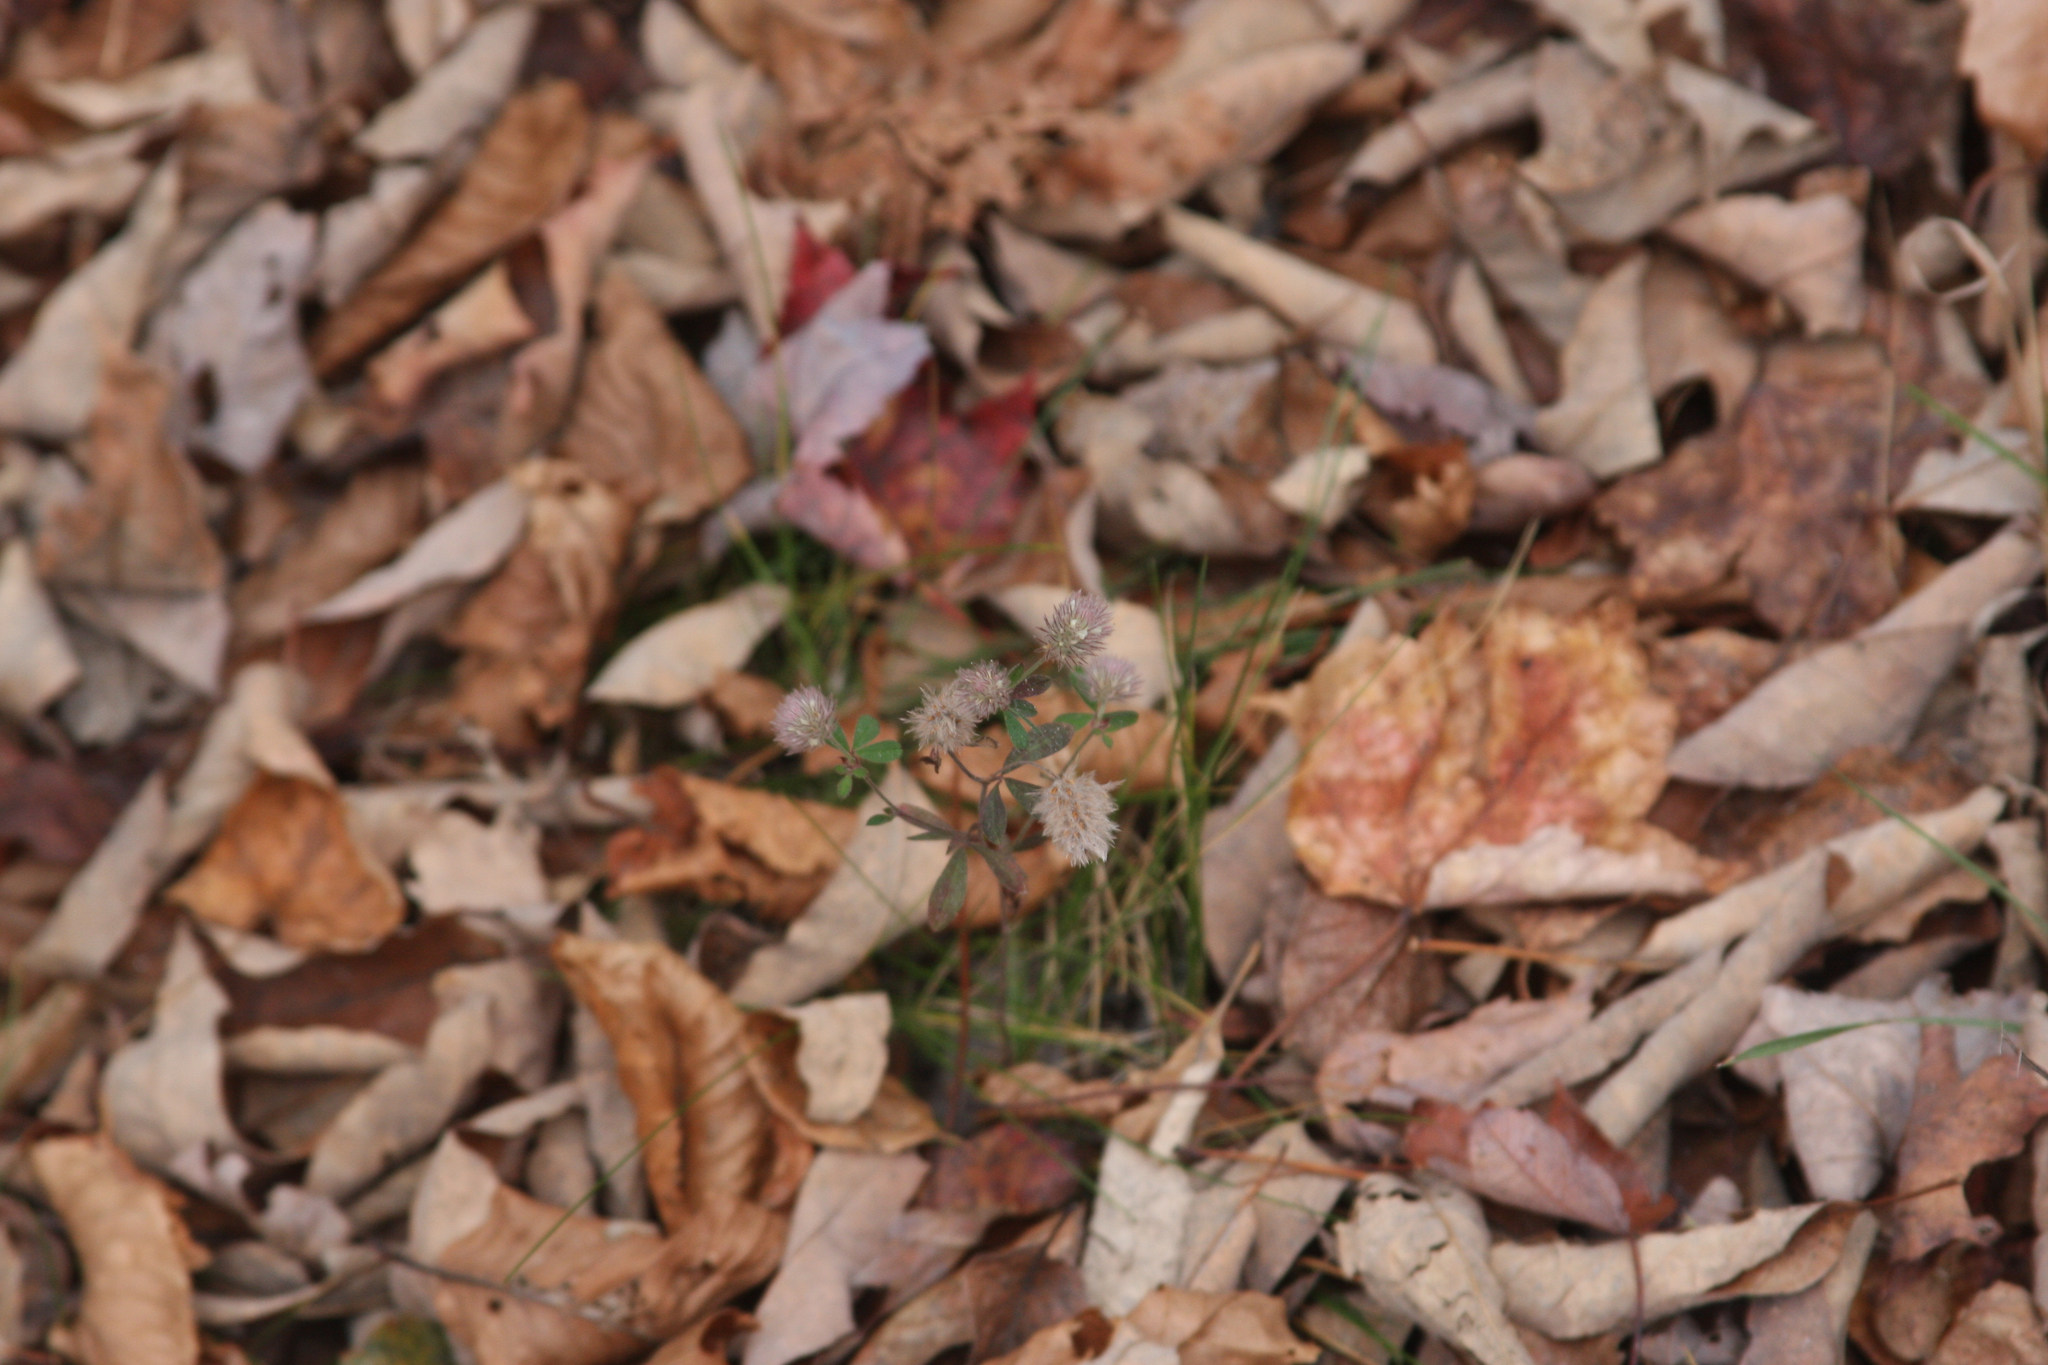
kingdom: Plantae
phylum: Tracheophyta
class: Magnoliopsida
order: Fabales
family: Fabaceae
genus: Trifolium
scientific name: Trifolium arvense
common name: Hare's-foot clover
